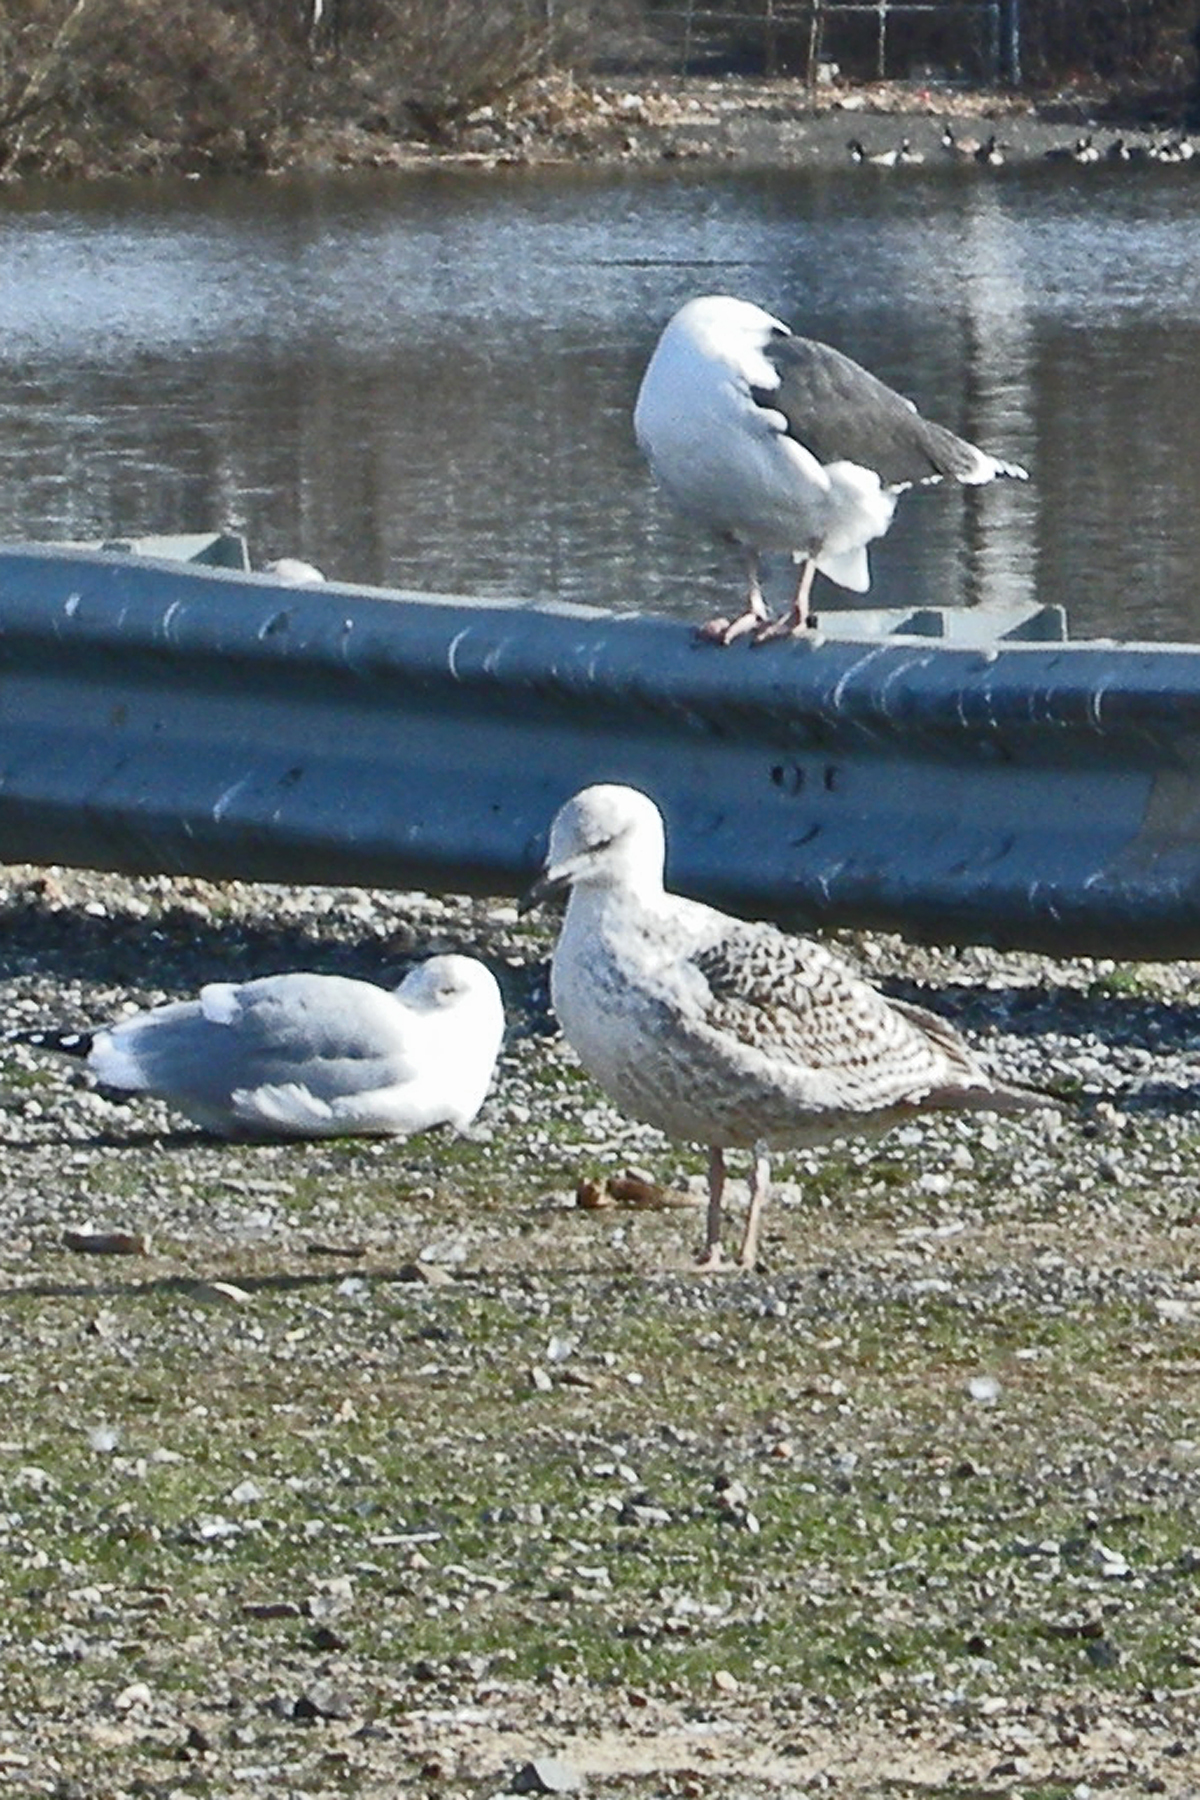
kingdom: Animalia
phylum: Chordata
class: Aves
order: Charadriiformes
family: Laridae
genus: Larus
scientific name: Larus marinus
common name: Great black-backed gull
